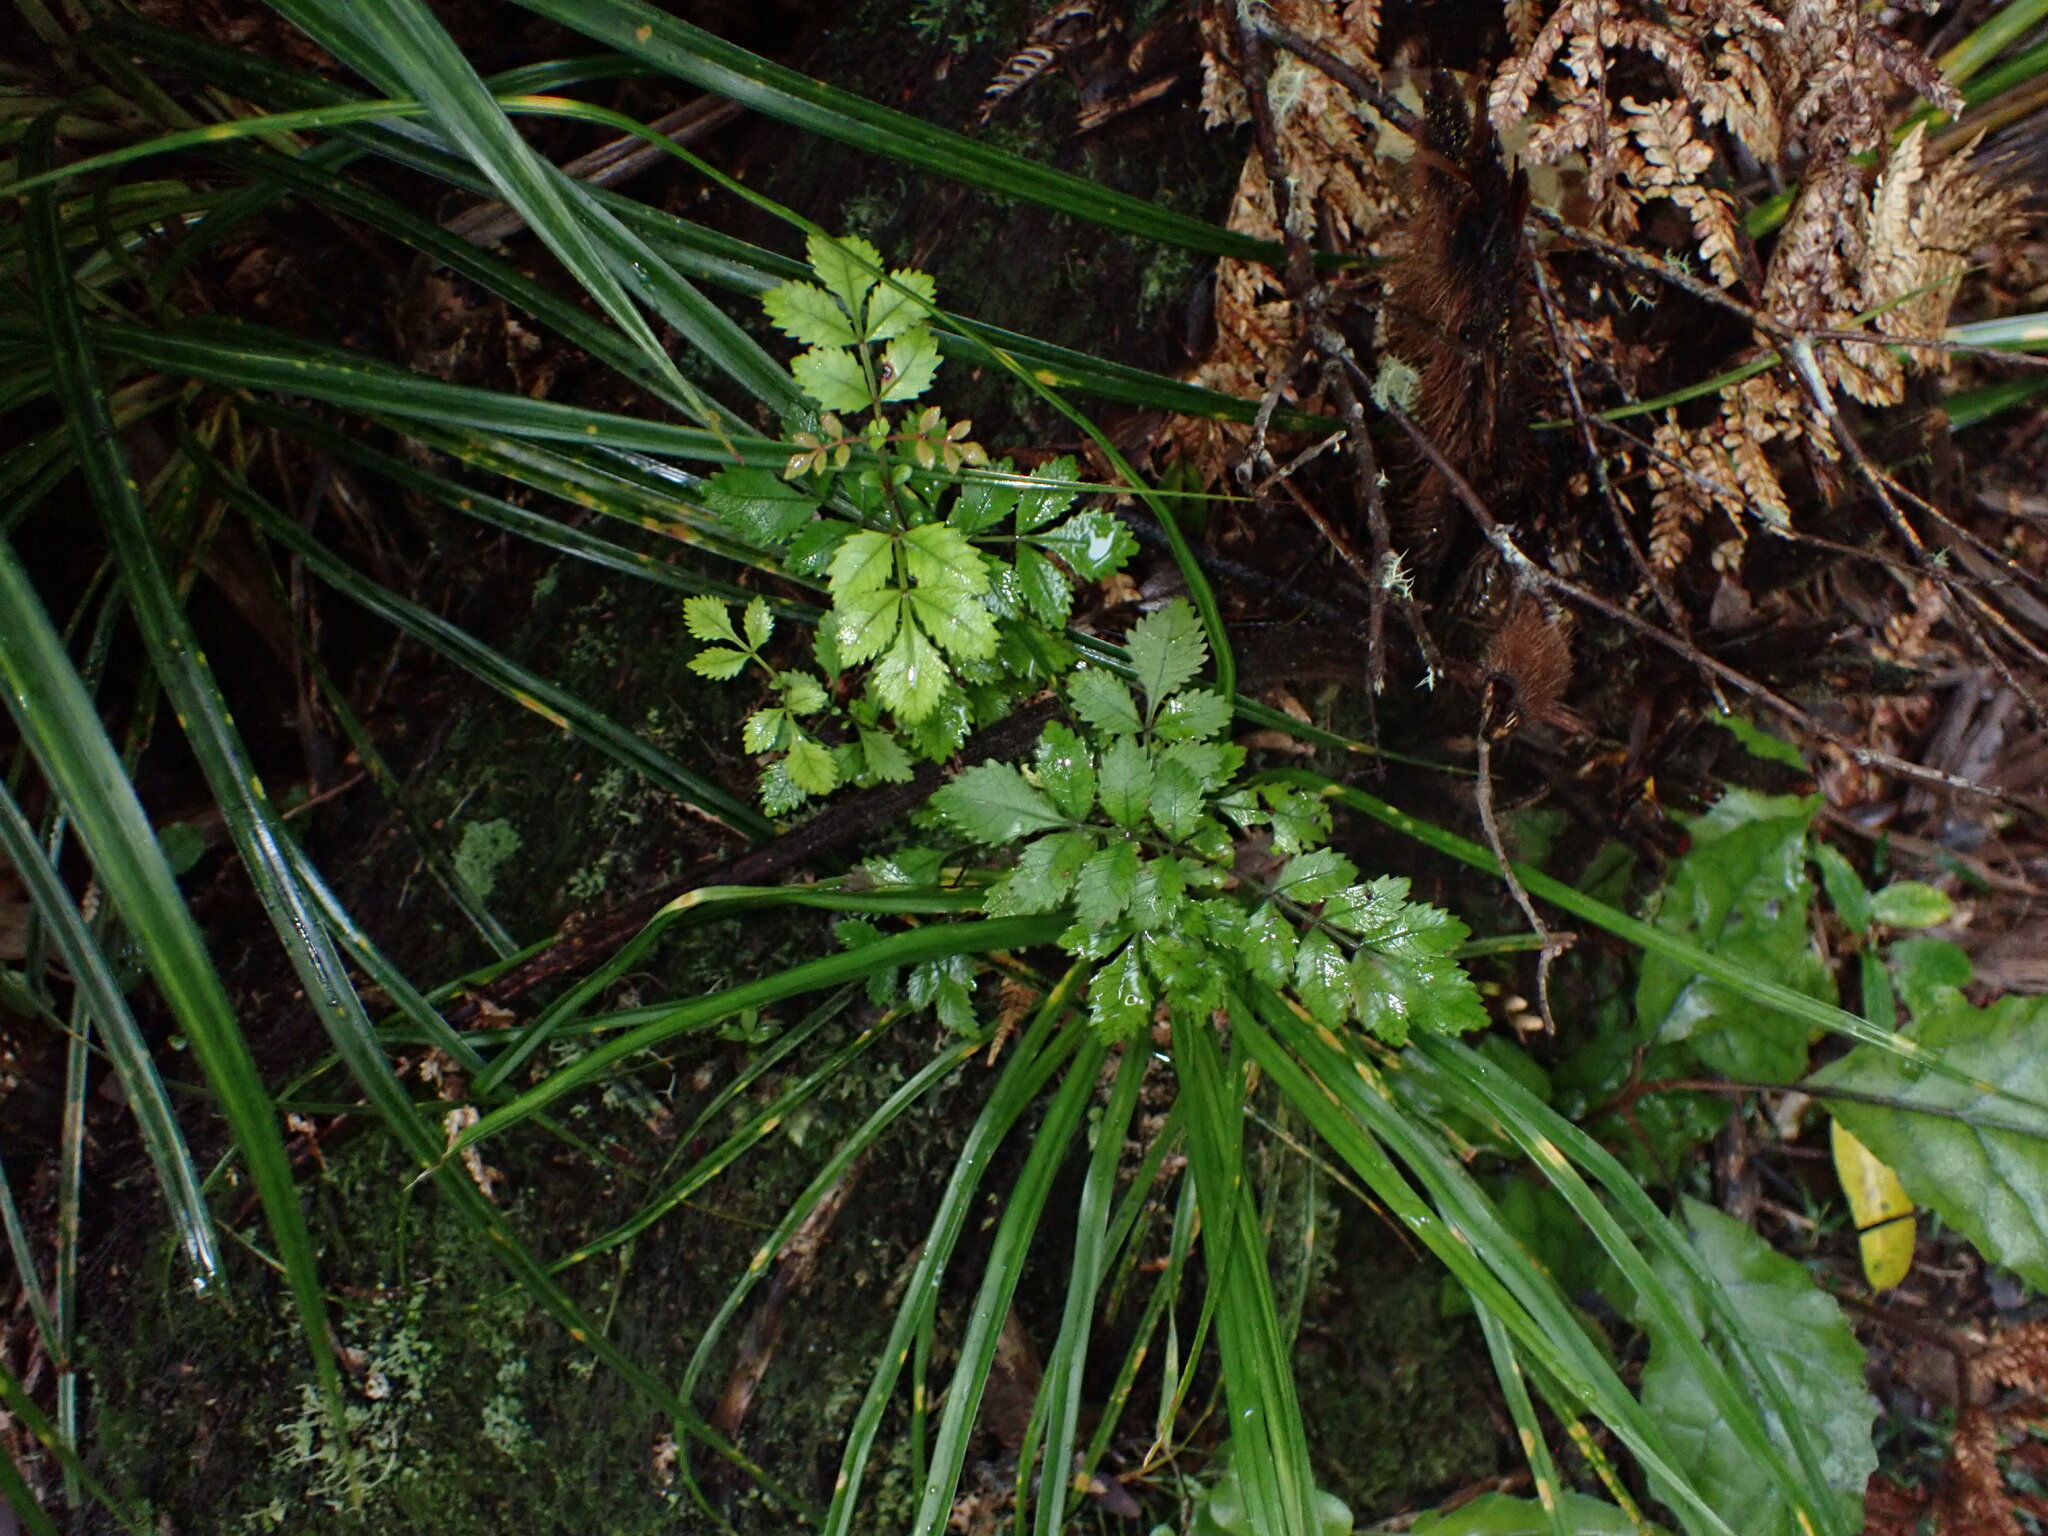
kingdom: Plantae
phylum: Tracheophyta
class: Magnoliopsida
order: Oxalidales
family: Cunoniaceae
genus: Pterophylla
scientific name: Pterophylla sylvicola
